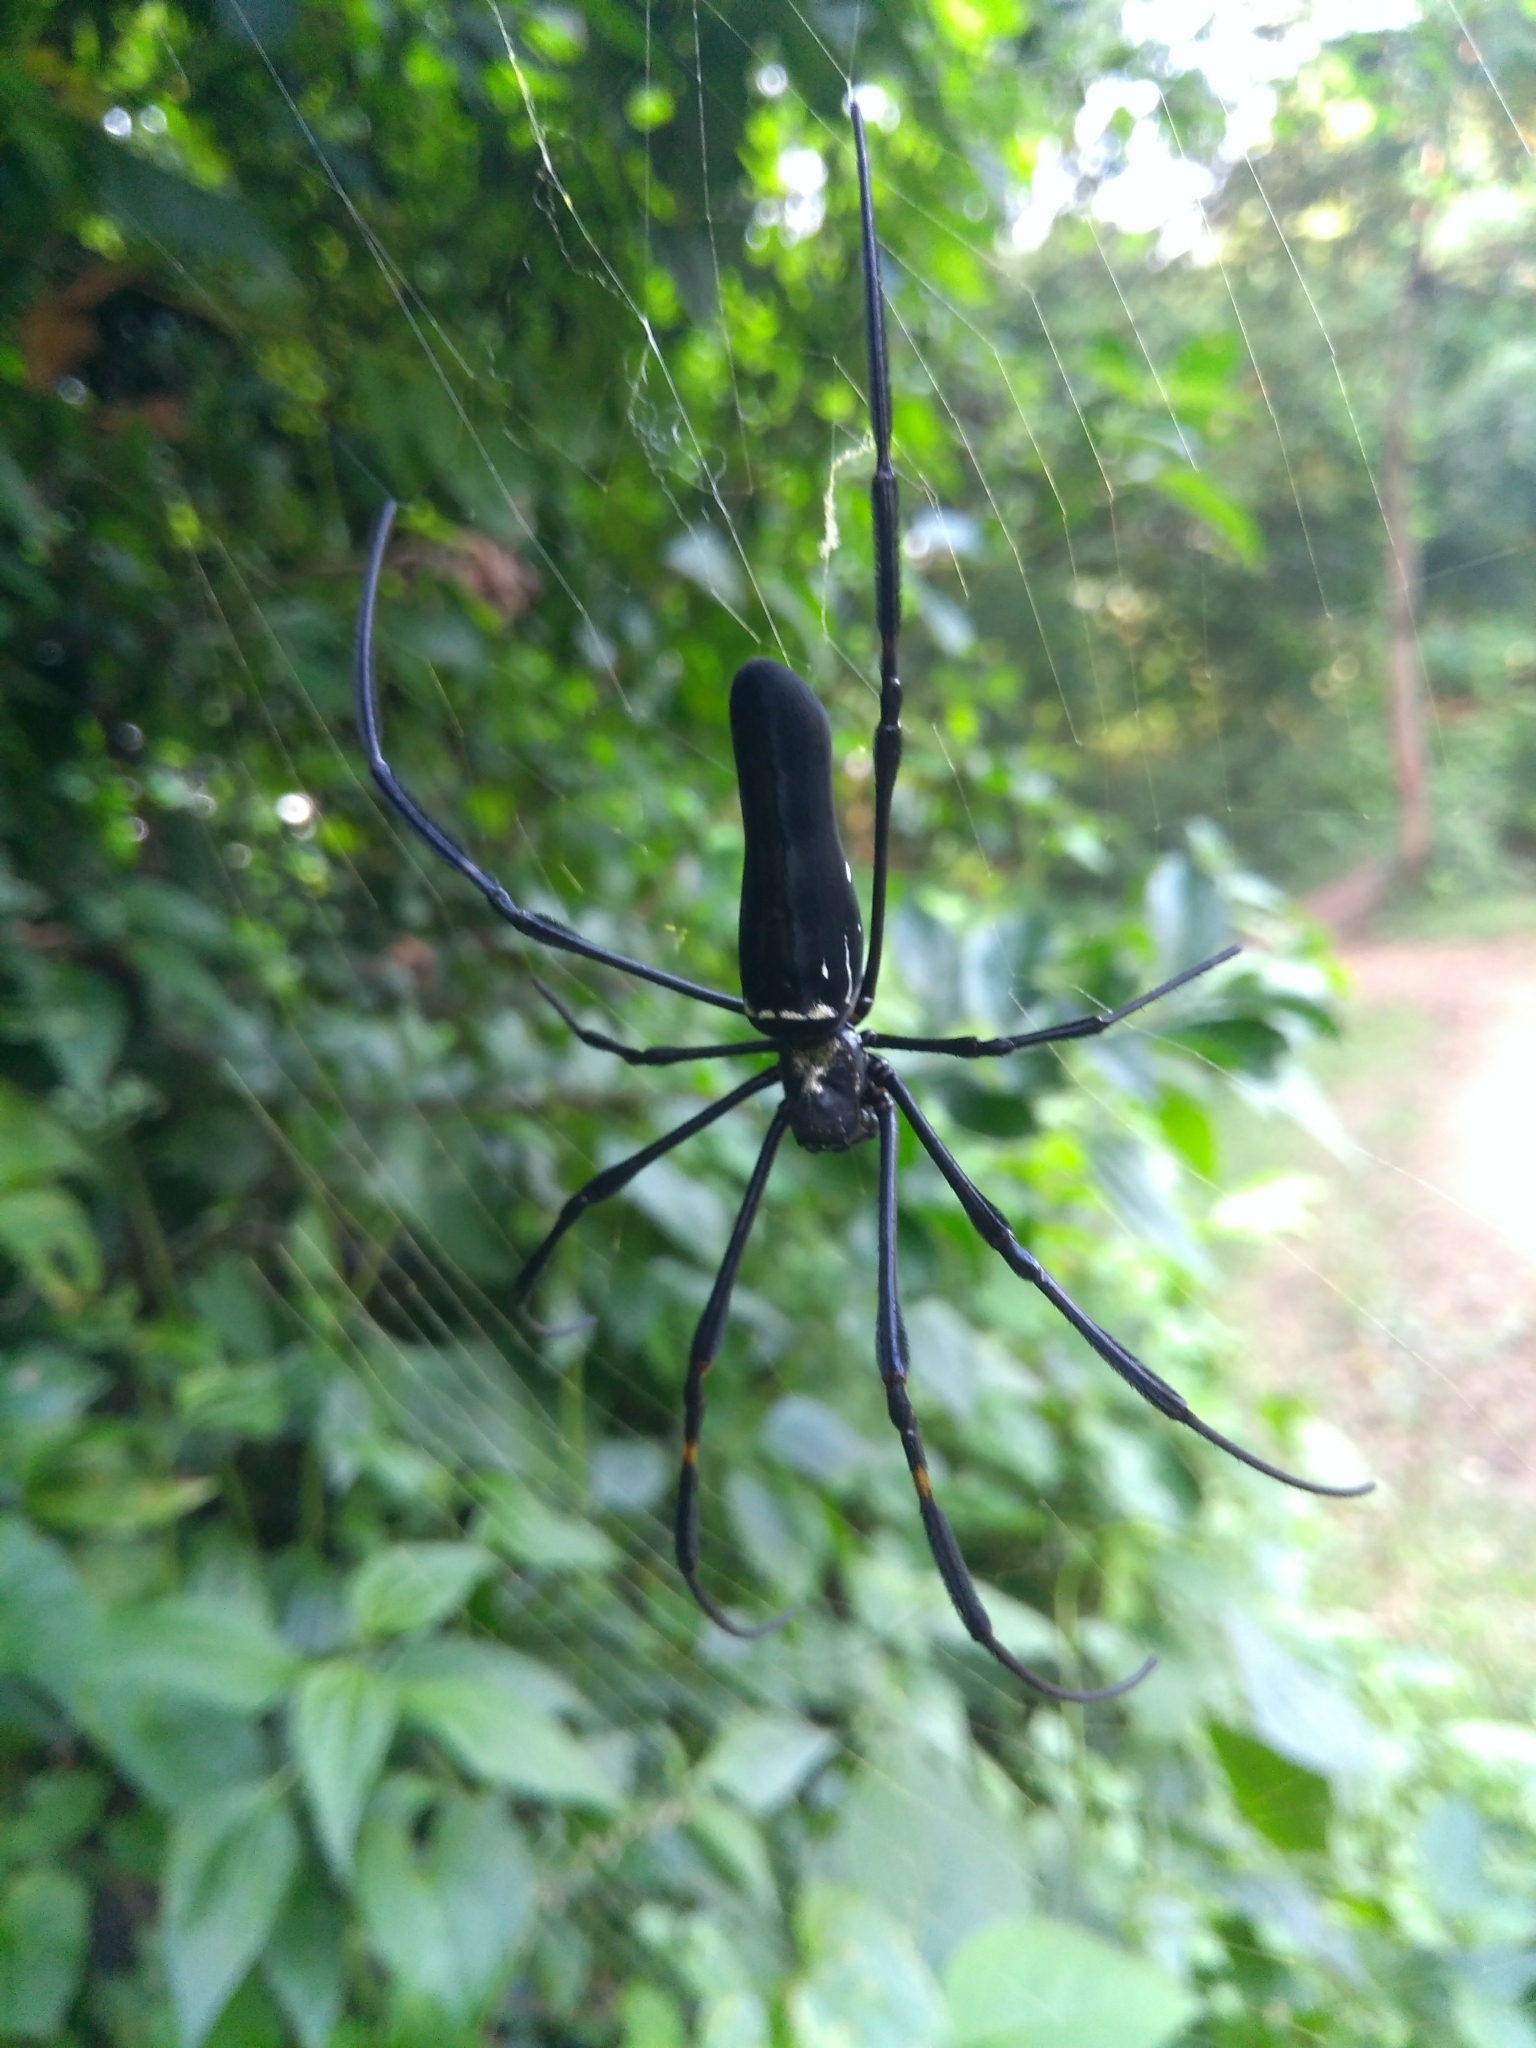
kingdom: Animalia
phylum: Arthropoda
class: Arachnida
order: Araneae
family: Araneidae
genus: Nephila
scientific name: Nephila pilipes
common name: Giant golden orb weaver
